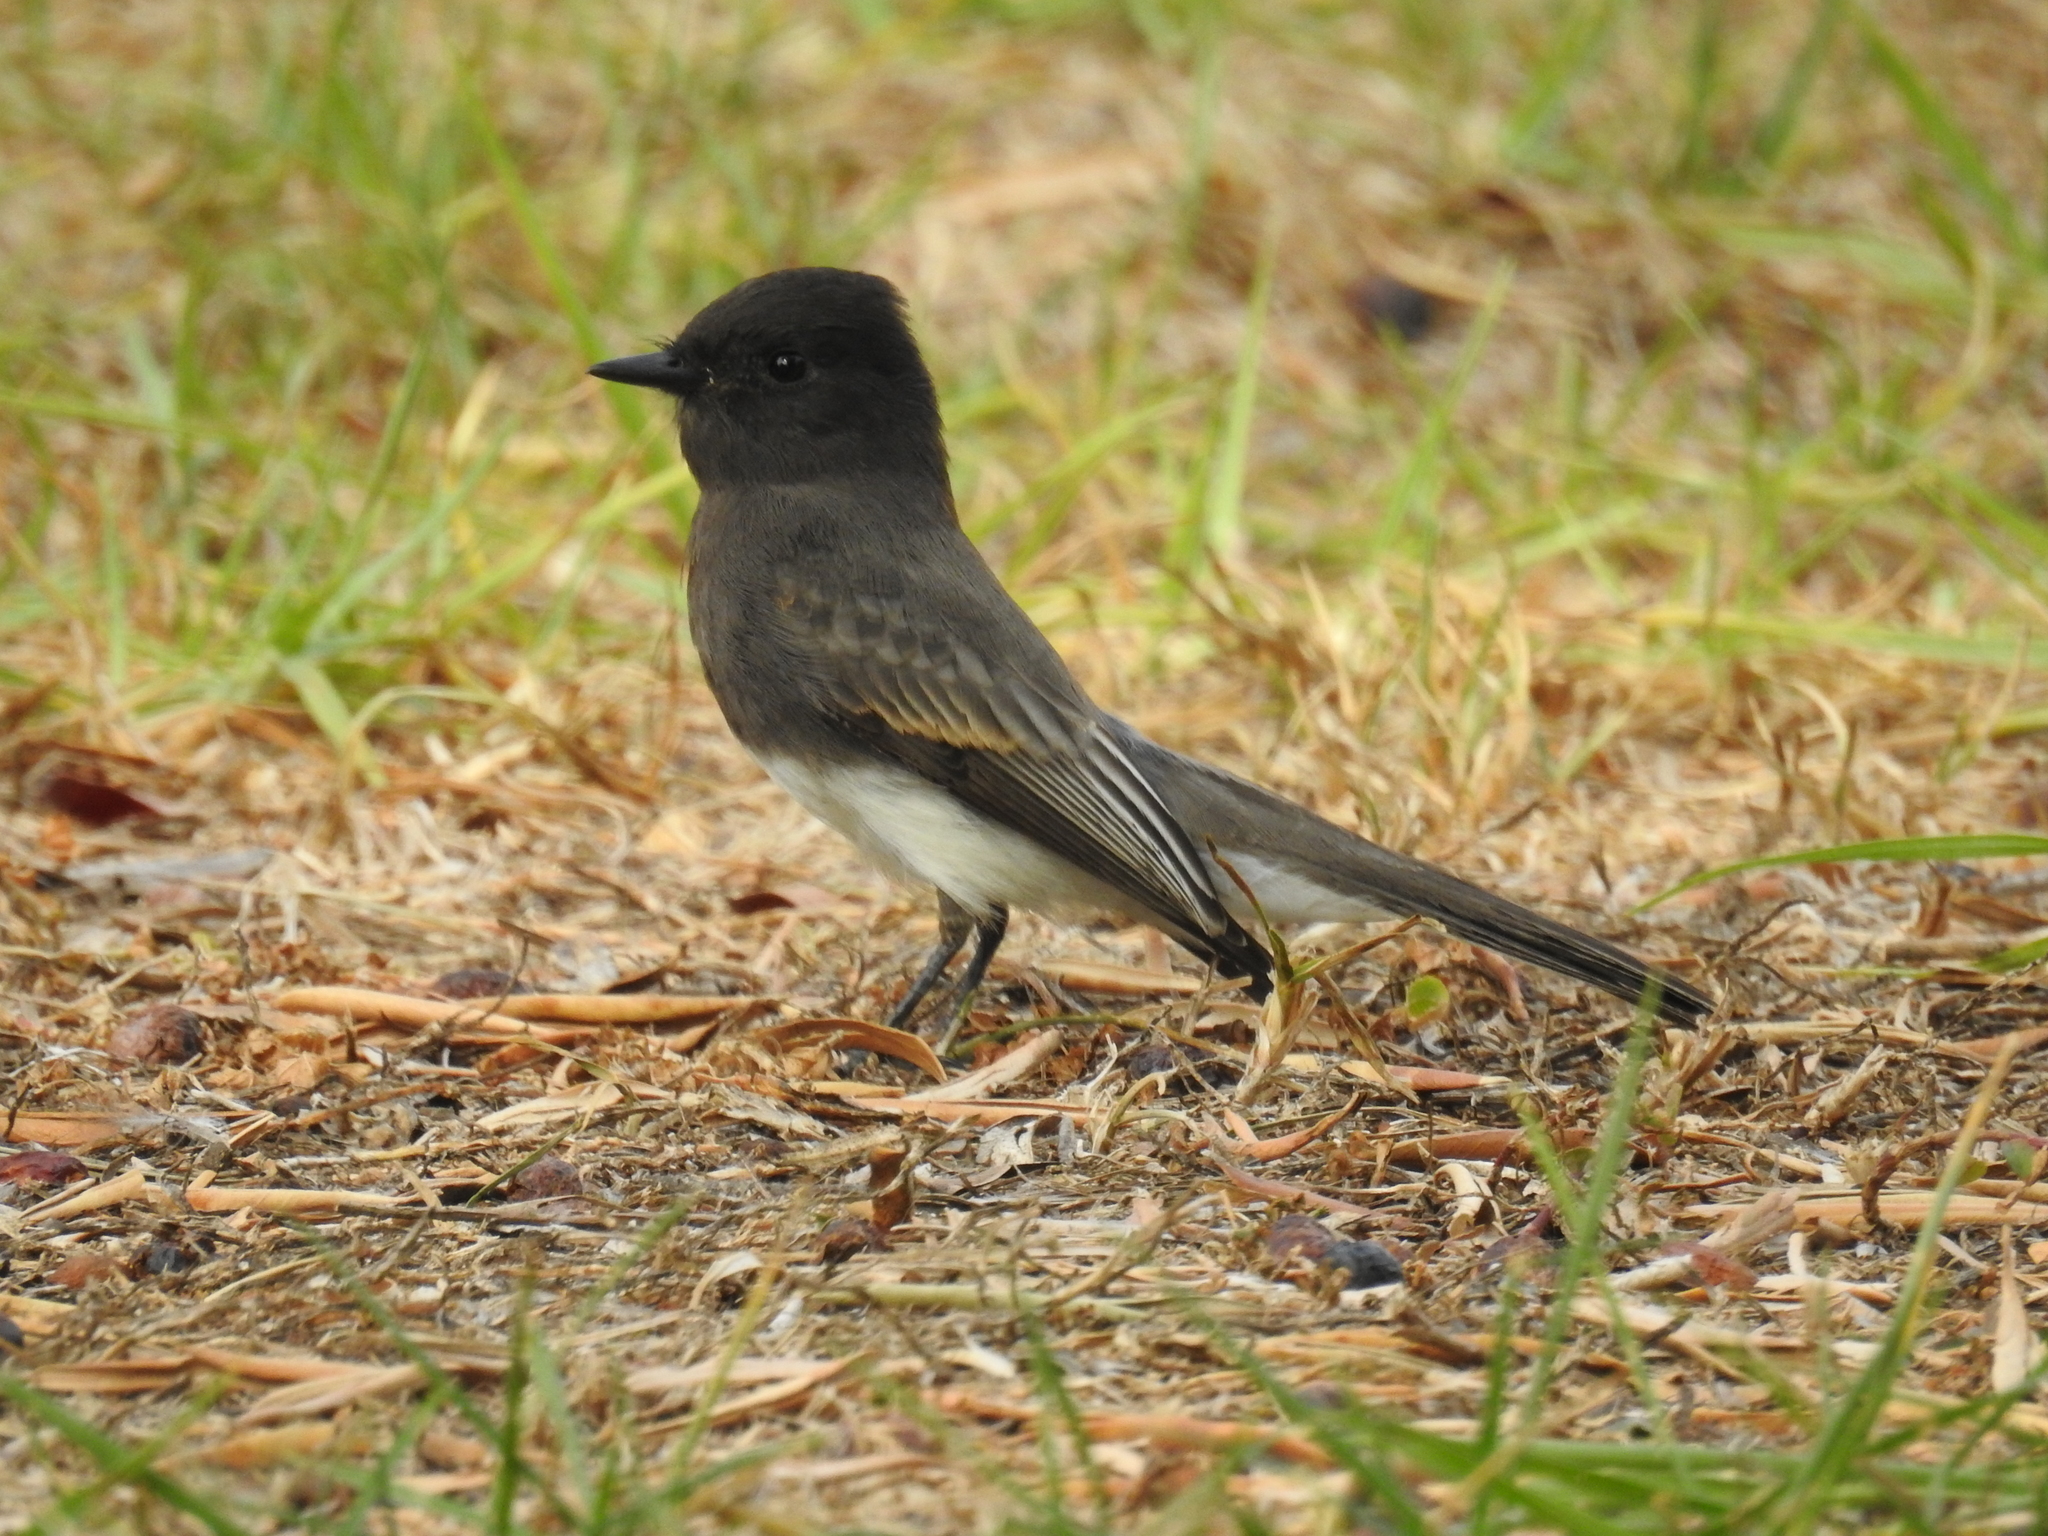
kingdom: Animalia
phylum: Chordata
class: Aves
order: Passeriformes
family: Tyrannidae
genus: Sayornis
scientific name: Sayornis nigricans
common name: Black phoebe
